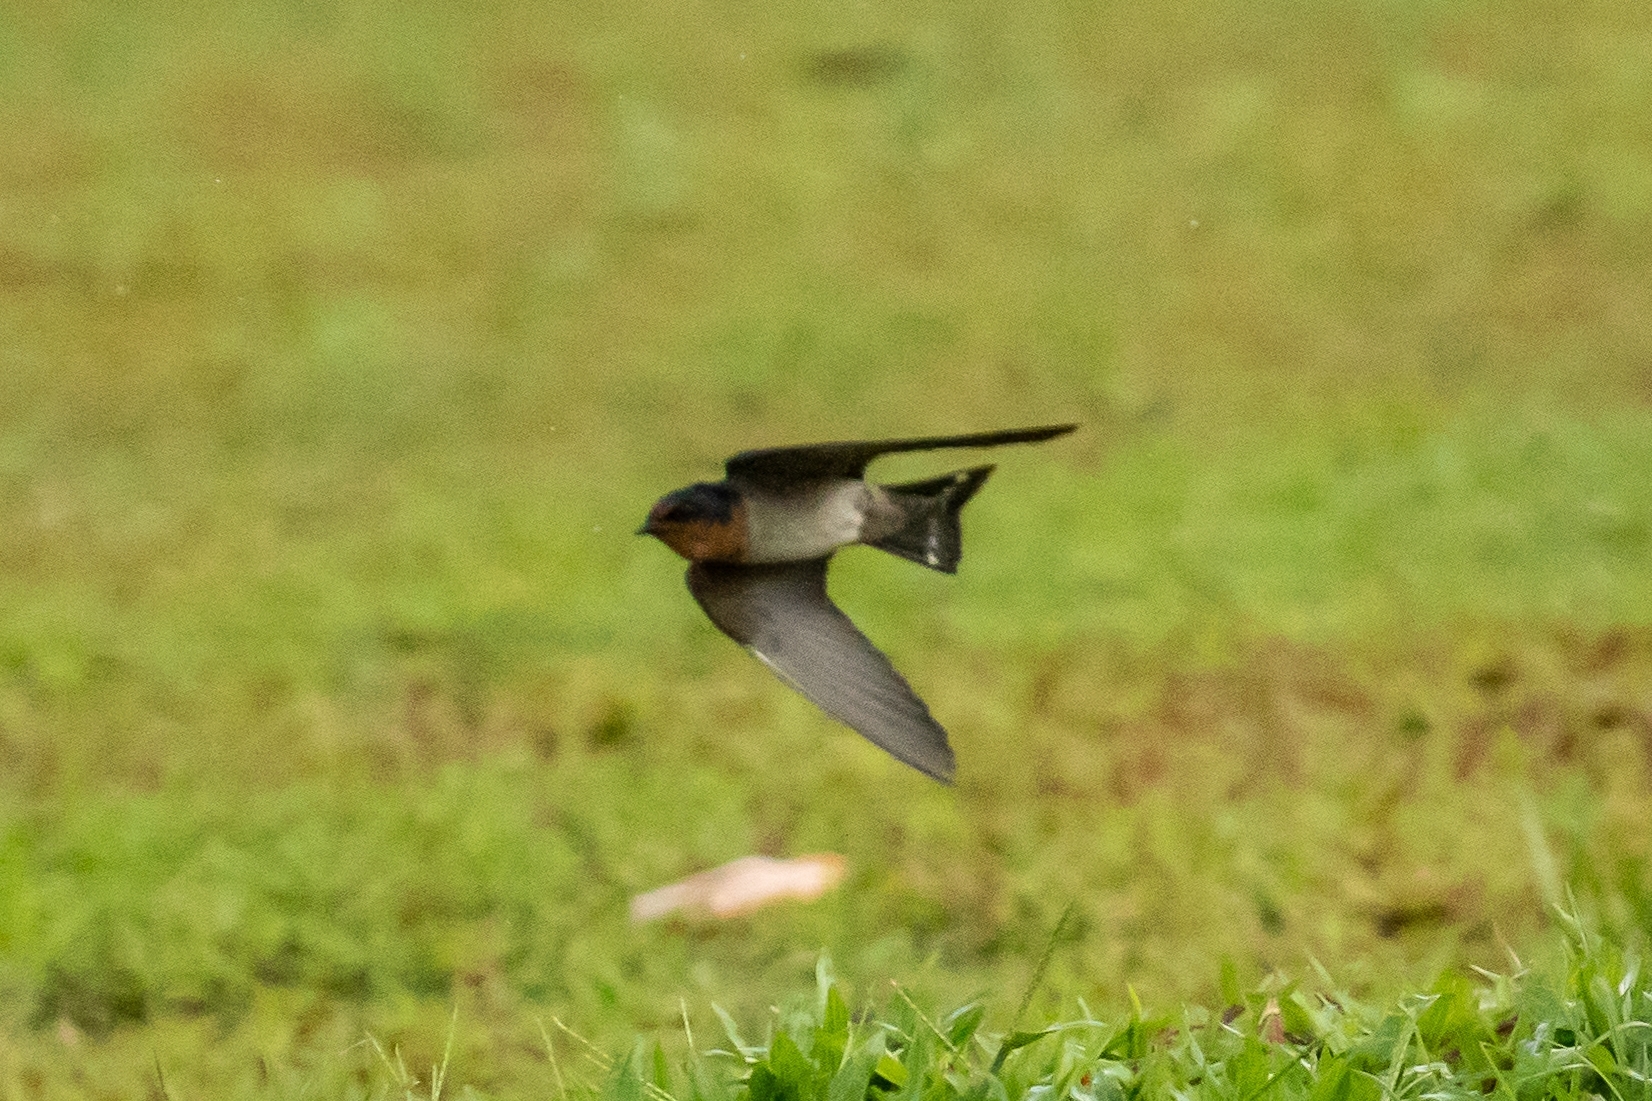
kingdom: Animalia
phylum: Chordata
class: Aves
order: Passeriformes
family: Hirundinidae
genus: Hirundo
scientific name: Hirundo tahitica
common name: Pacific swallow
